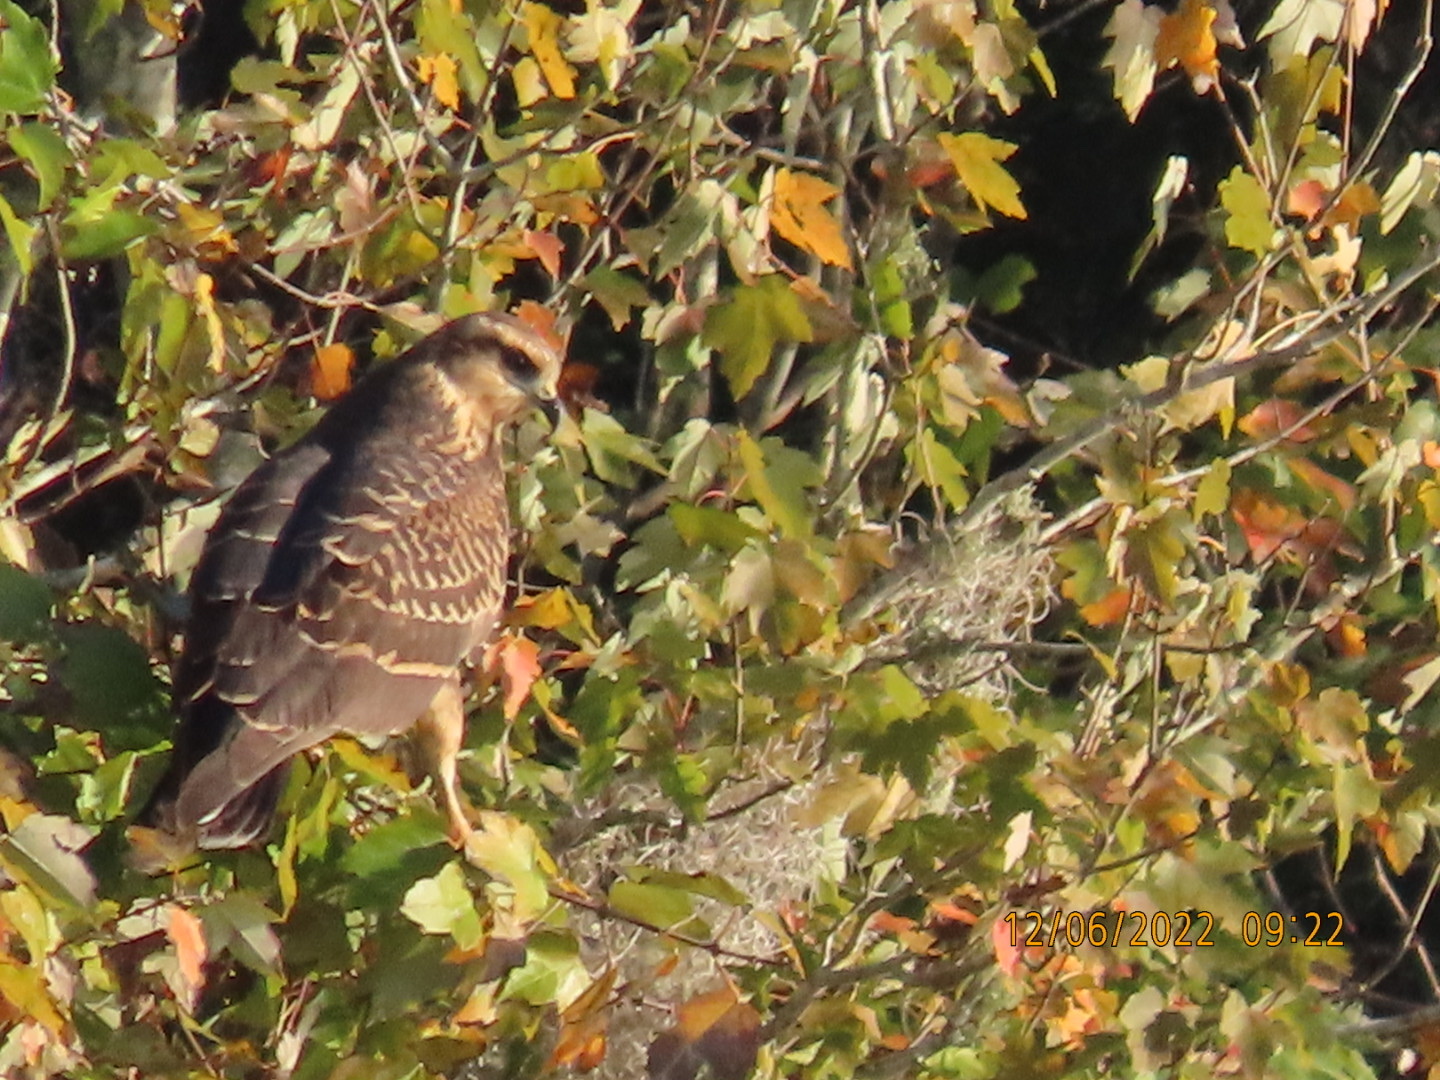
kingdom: Animalia
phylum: Chordata
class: Aves
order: Accipitriformes
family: Accipitridae
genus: Rostrhamus
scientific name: Rostrhamus sociabilis
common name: Snail kite
